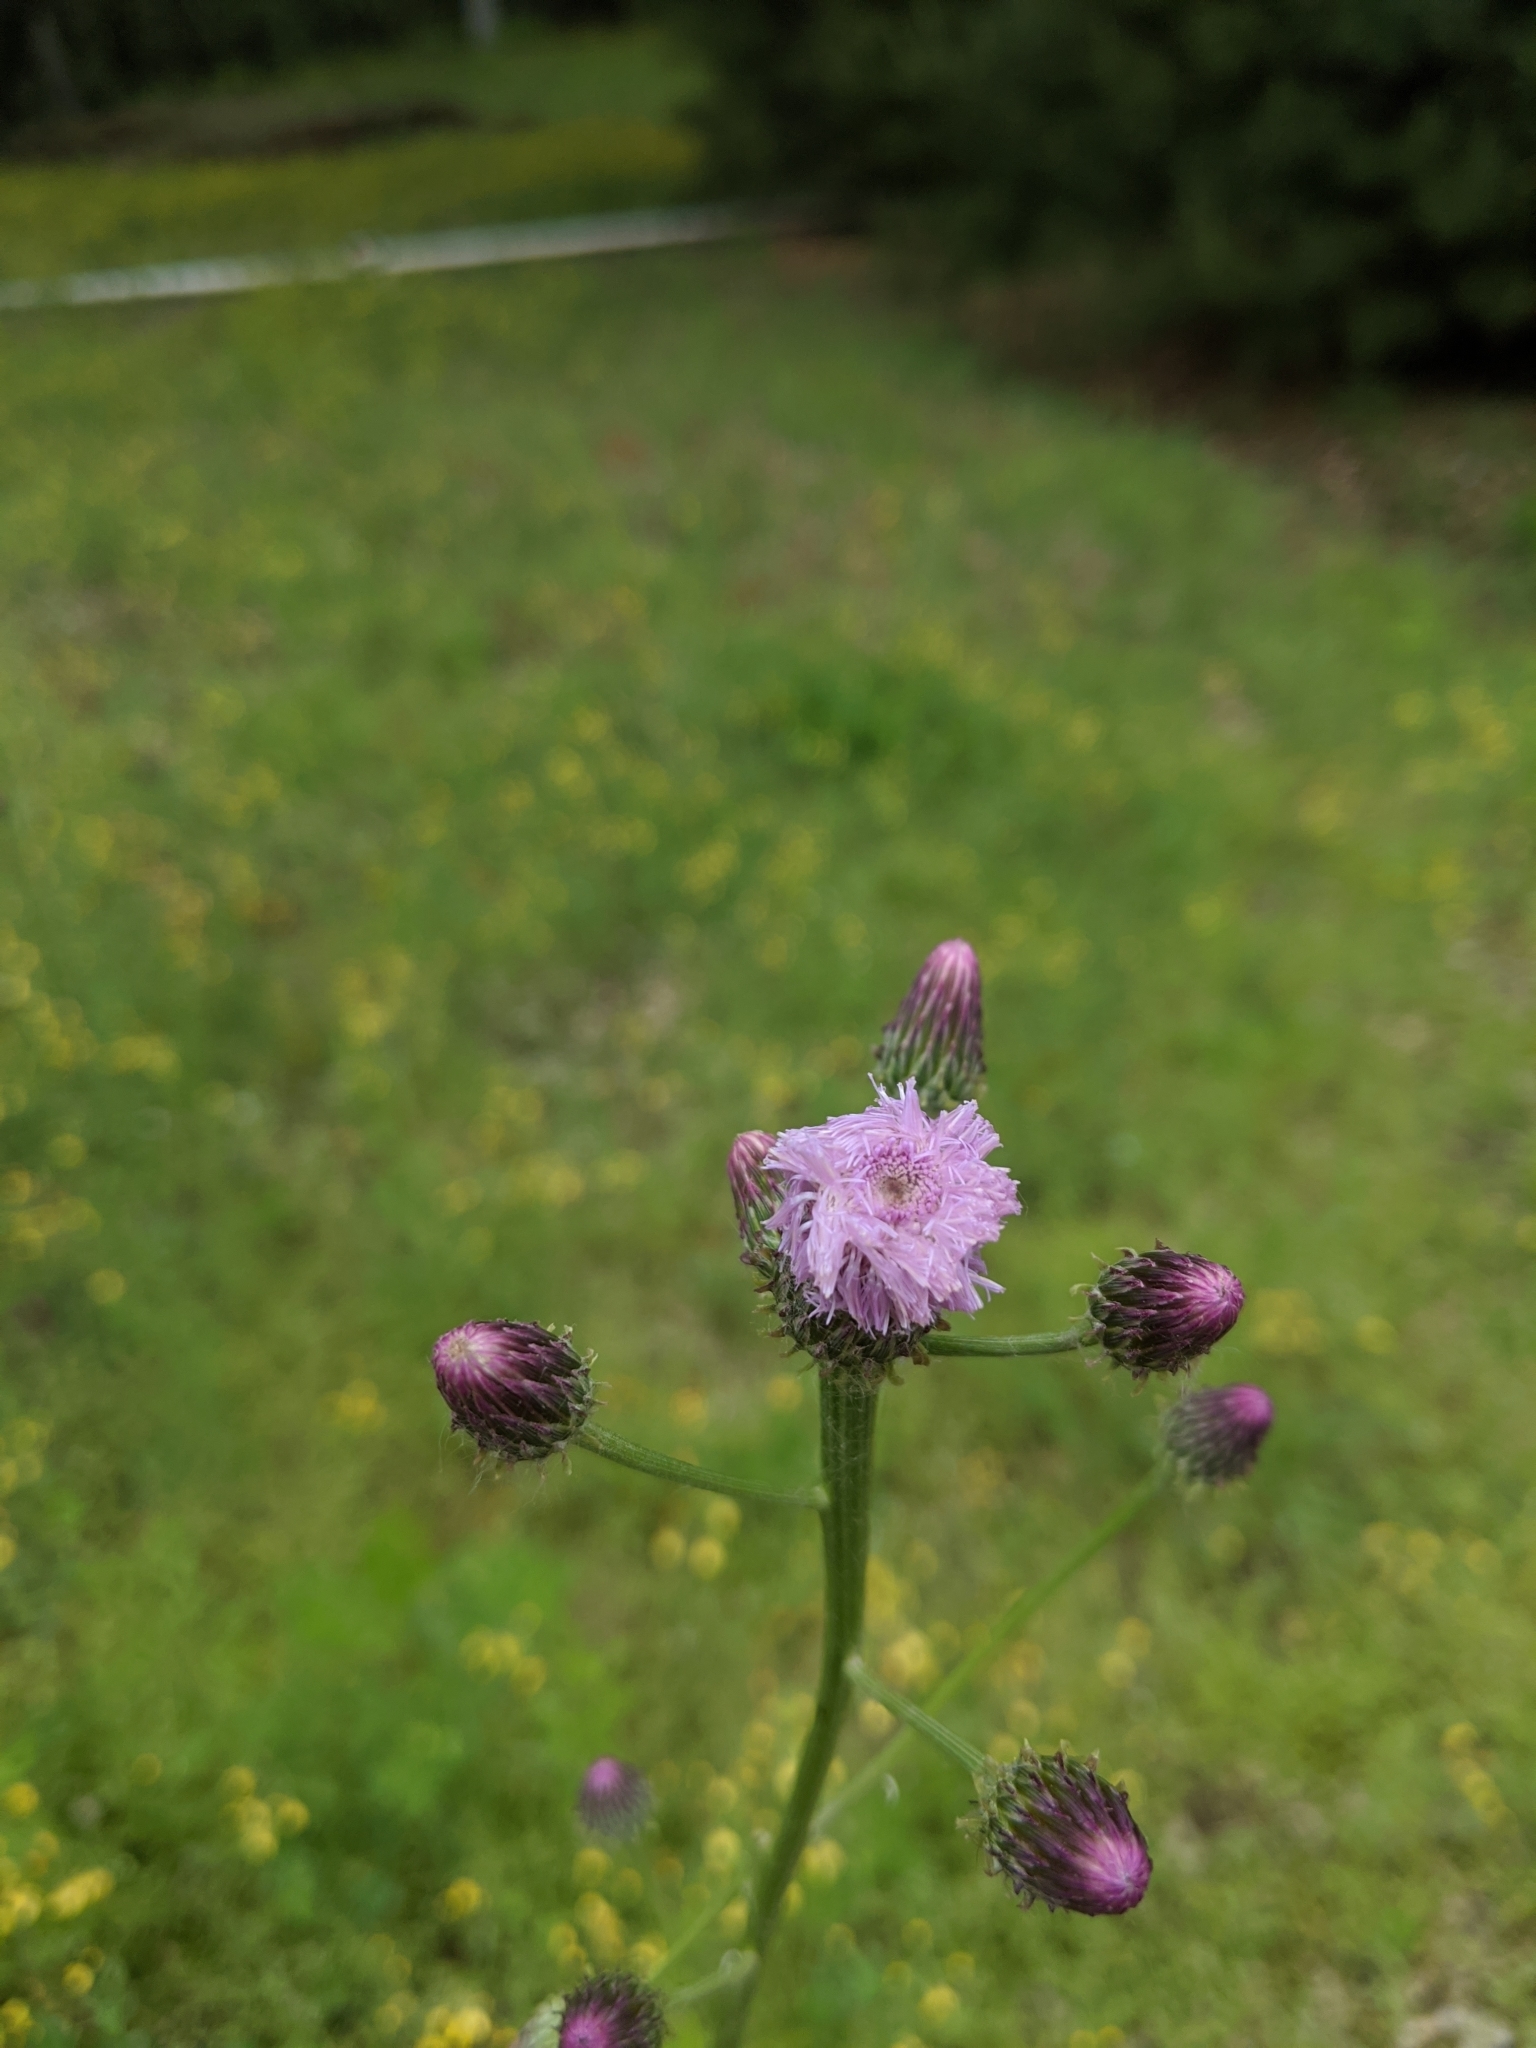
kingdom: Plantae
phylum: Tracheophyta
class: Magnoliopsida
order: Asterales
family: Asteraceae
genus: Saussurea
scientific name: Saussurea lyrata
